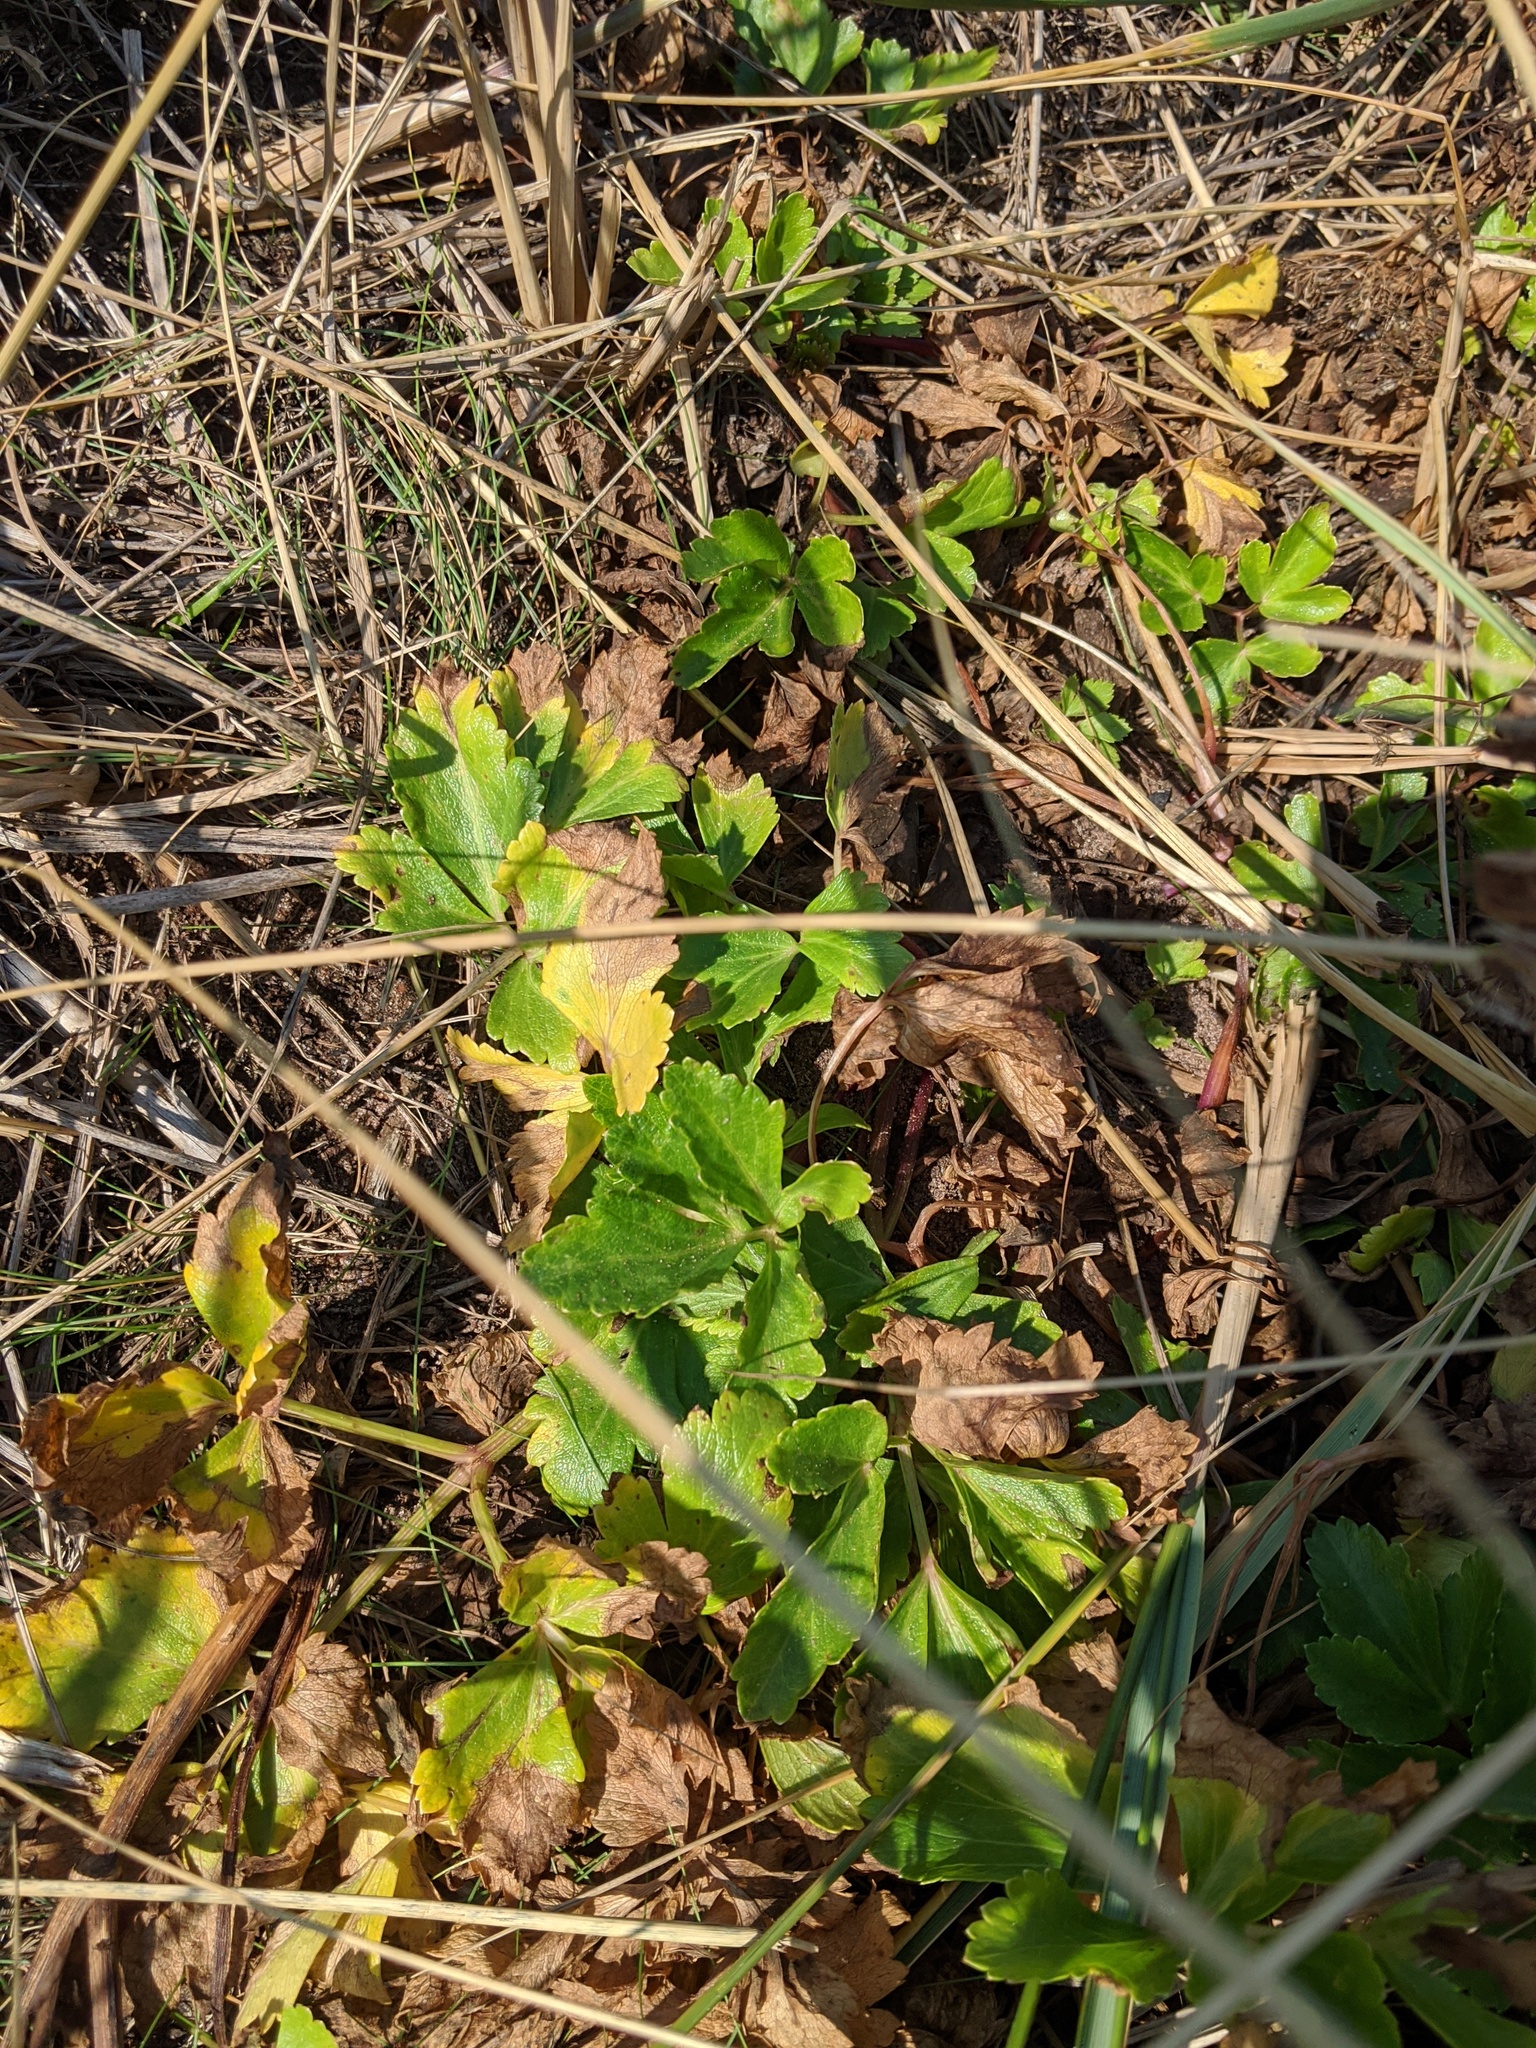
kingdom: Plantae
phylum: Tracheophyta
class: Magnoliopsida
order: Apiales
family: Apiaceae
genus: Ligusticum
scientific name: Ligusticum scothicum
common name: Beach lovage
